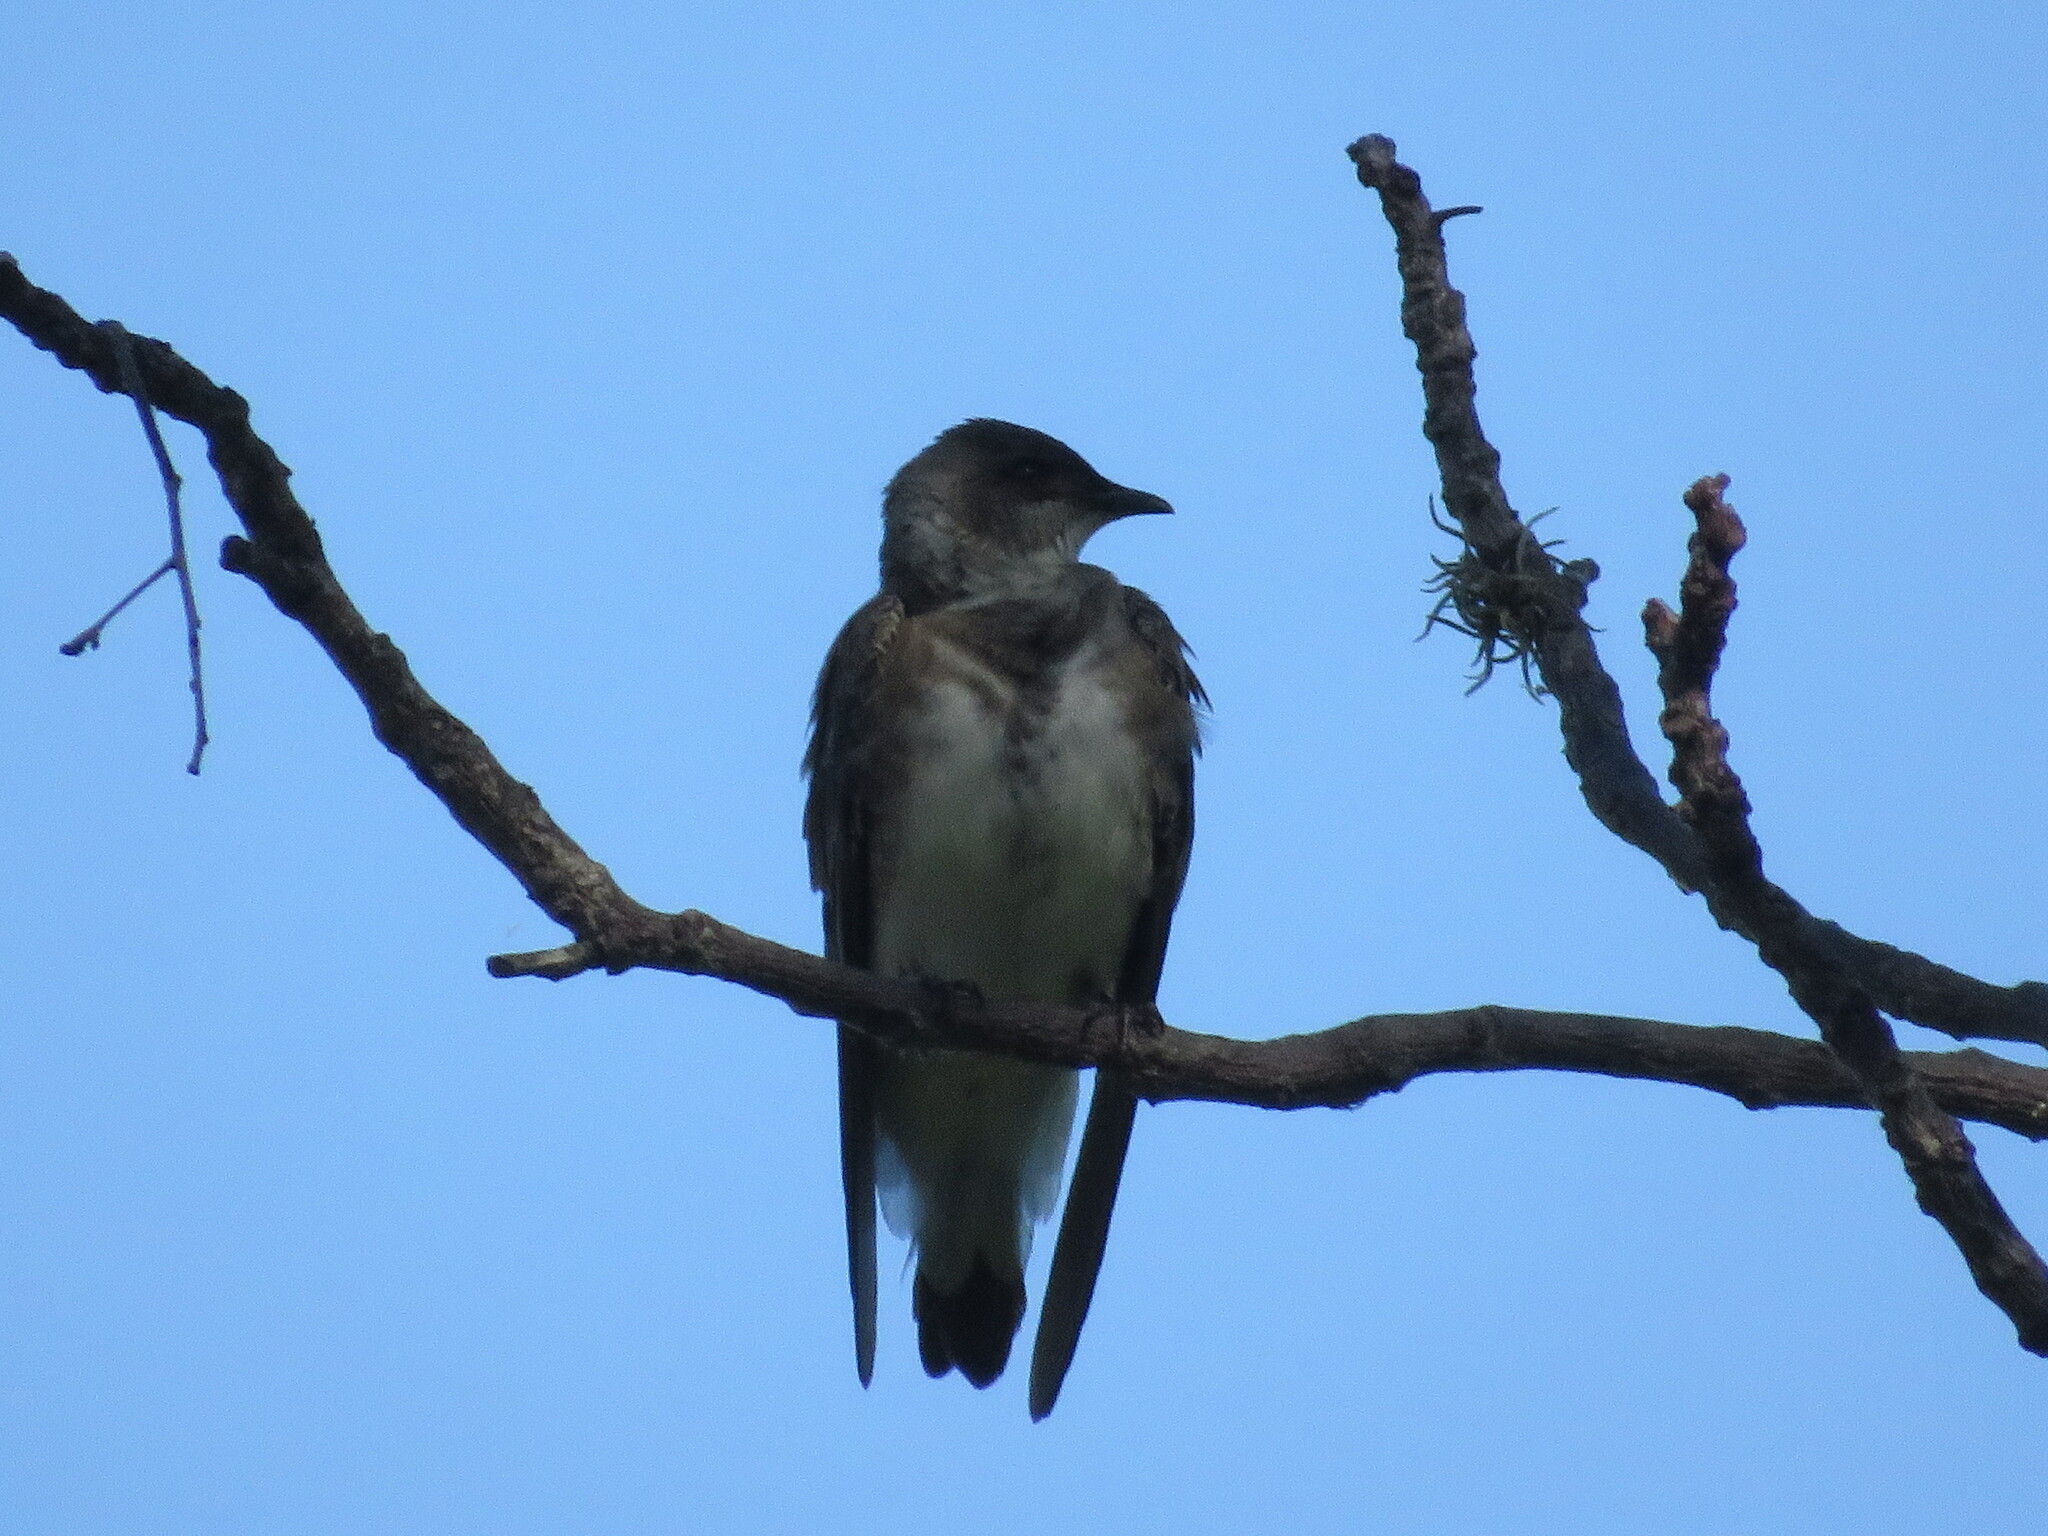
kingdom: Animalia
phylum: Chordata
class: Aves
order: Passeriformes
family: Hirundinidae
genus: Progne
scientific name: Progne tapera
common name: Brown-chested martin
